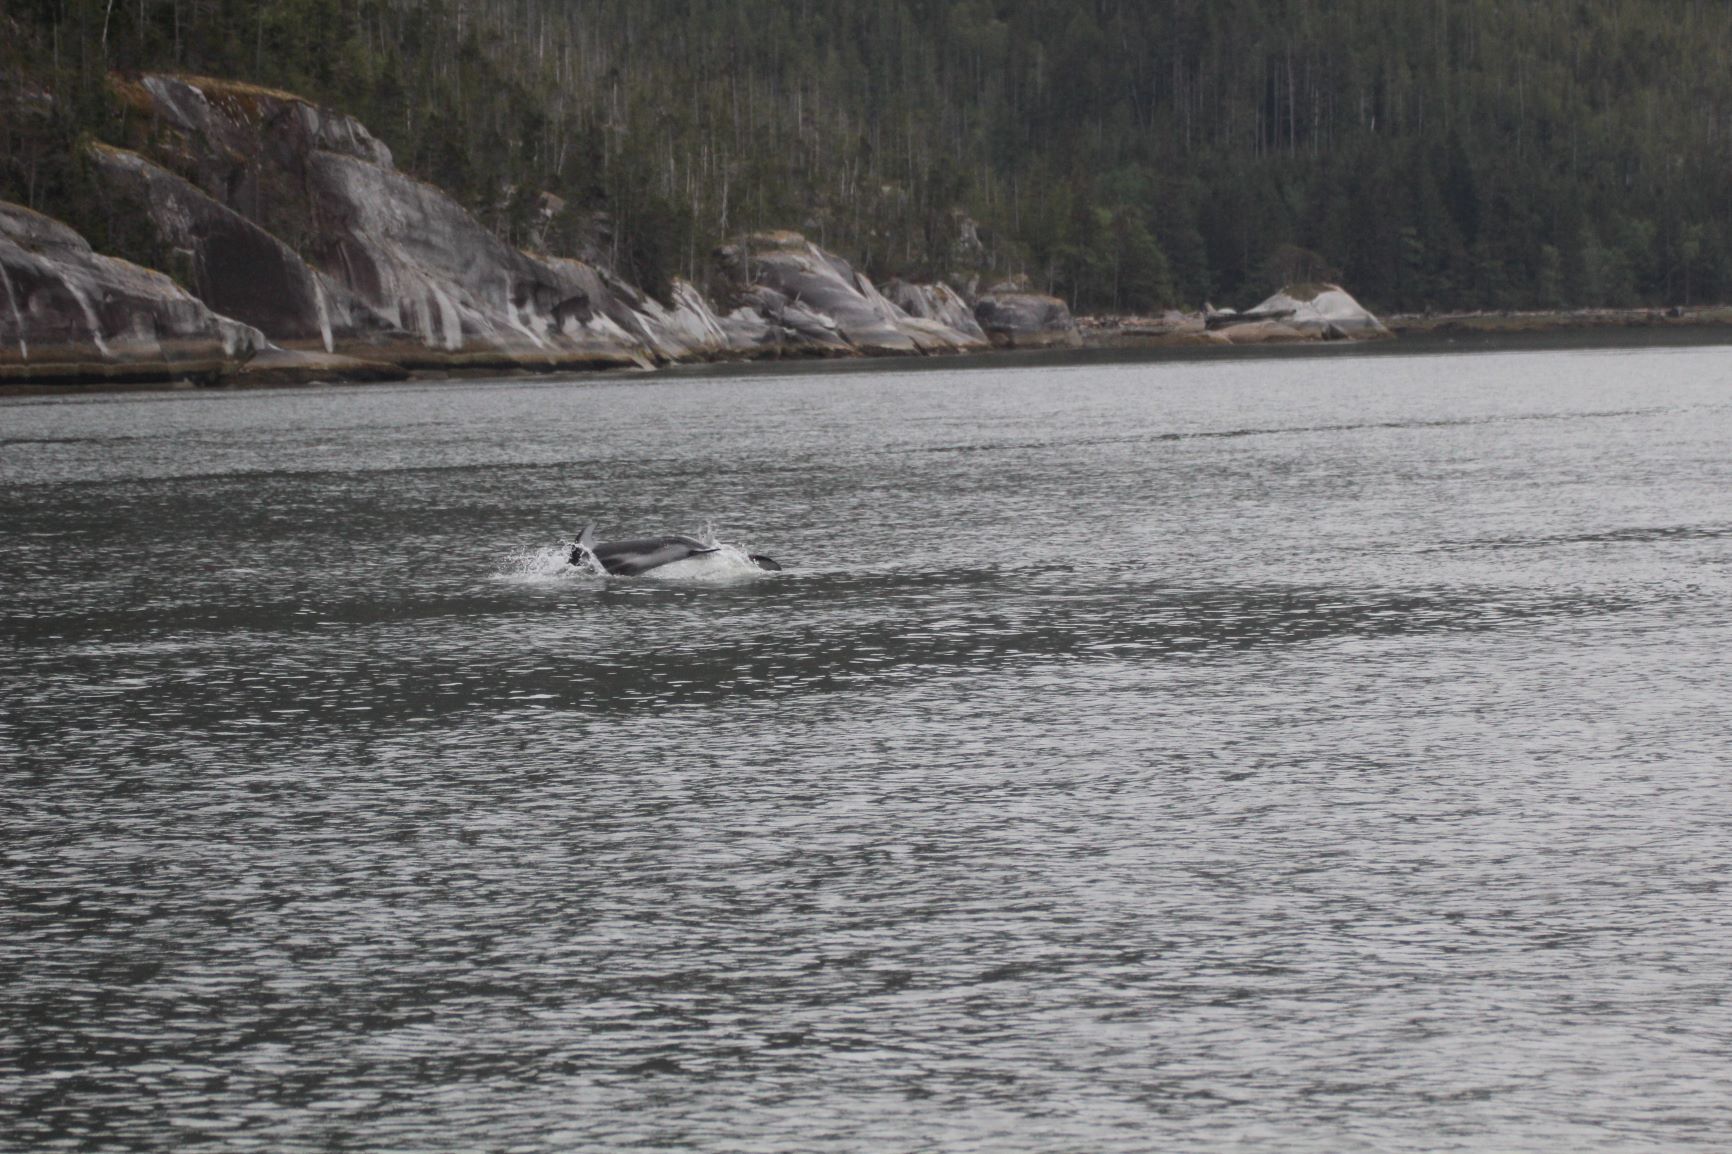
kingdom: Animalia
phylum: Chordata
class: Mammalia
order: Cetacea
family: Delphinidae
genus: Lagenorhynchus
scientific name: Lagenorhynchus obliquidens
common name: Pacific white-sided dolphin
